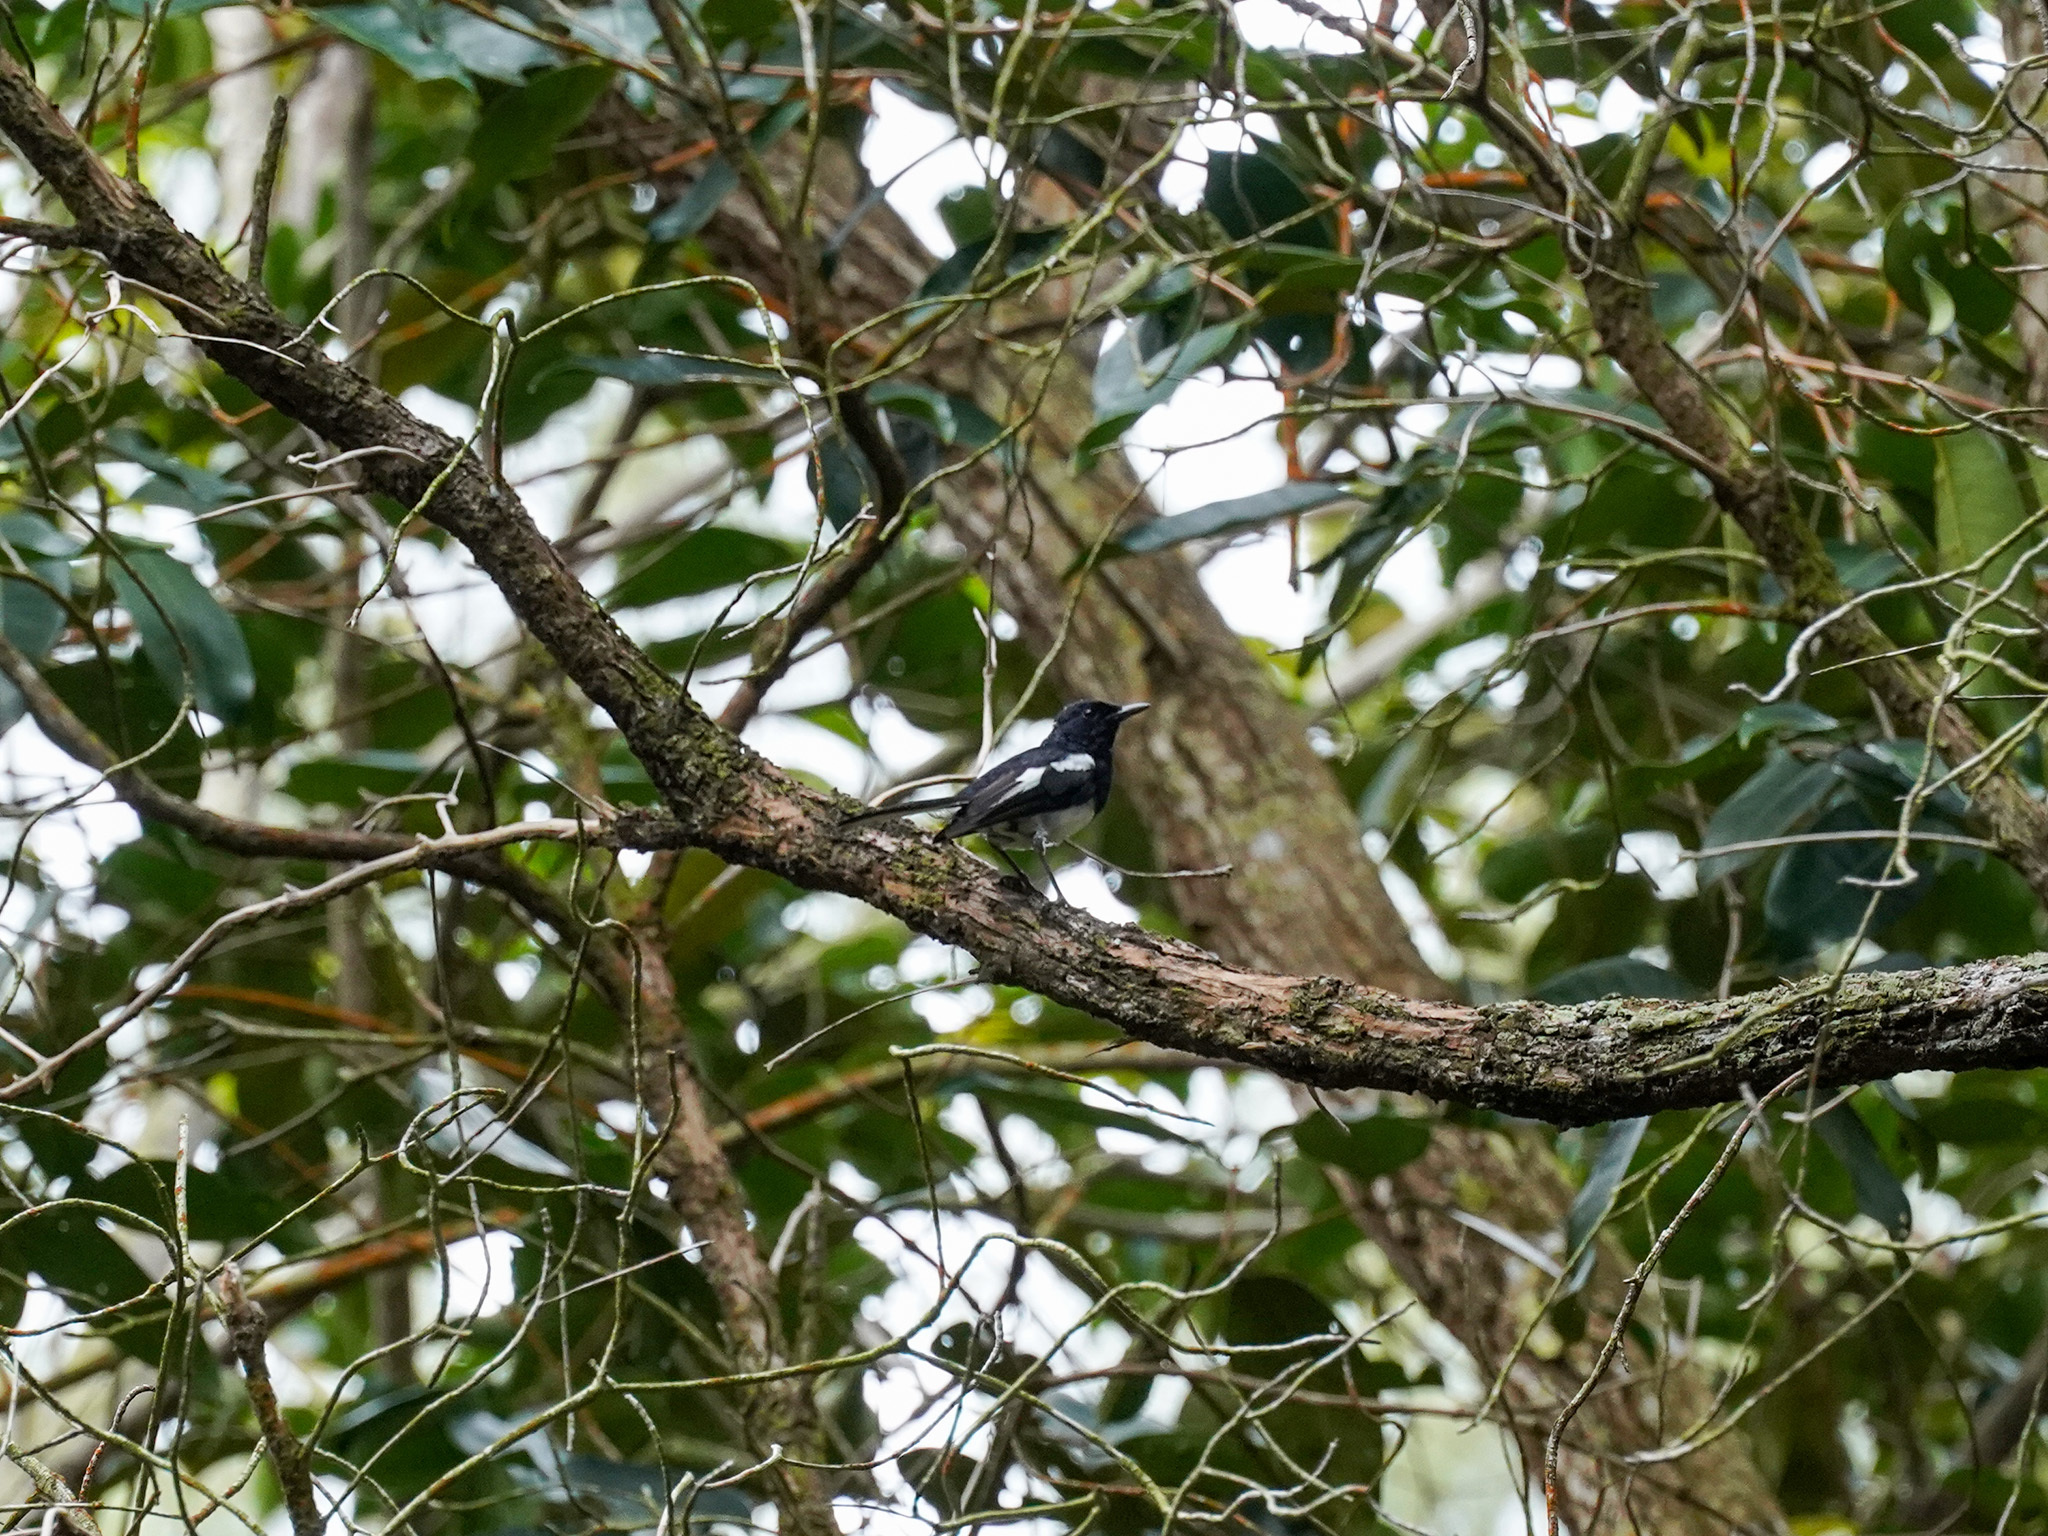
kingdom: Animalia
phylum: Chordata
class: Aves
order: Passeriformes
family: Muscicapidae
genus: Copsychus
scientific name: Copsychus saularis
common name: Oriental magpie-robin
